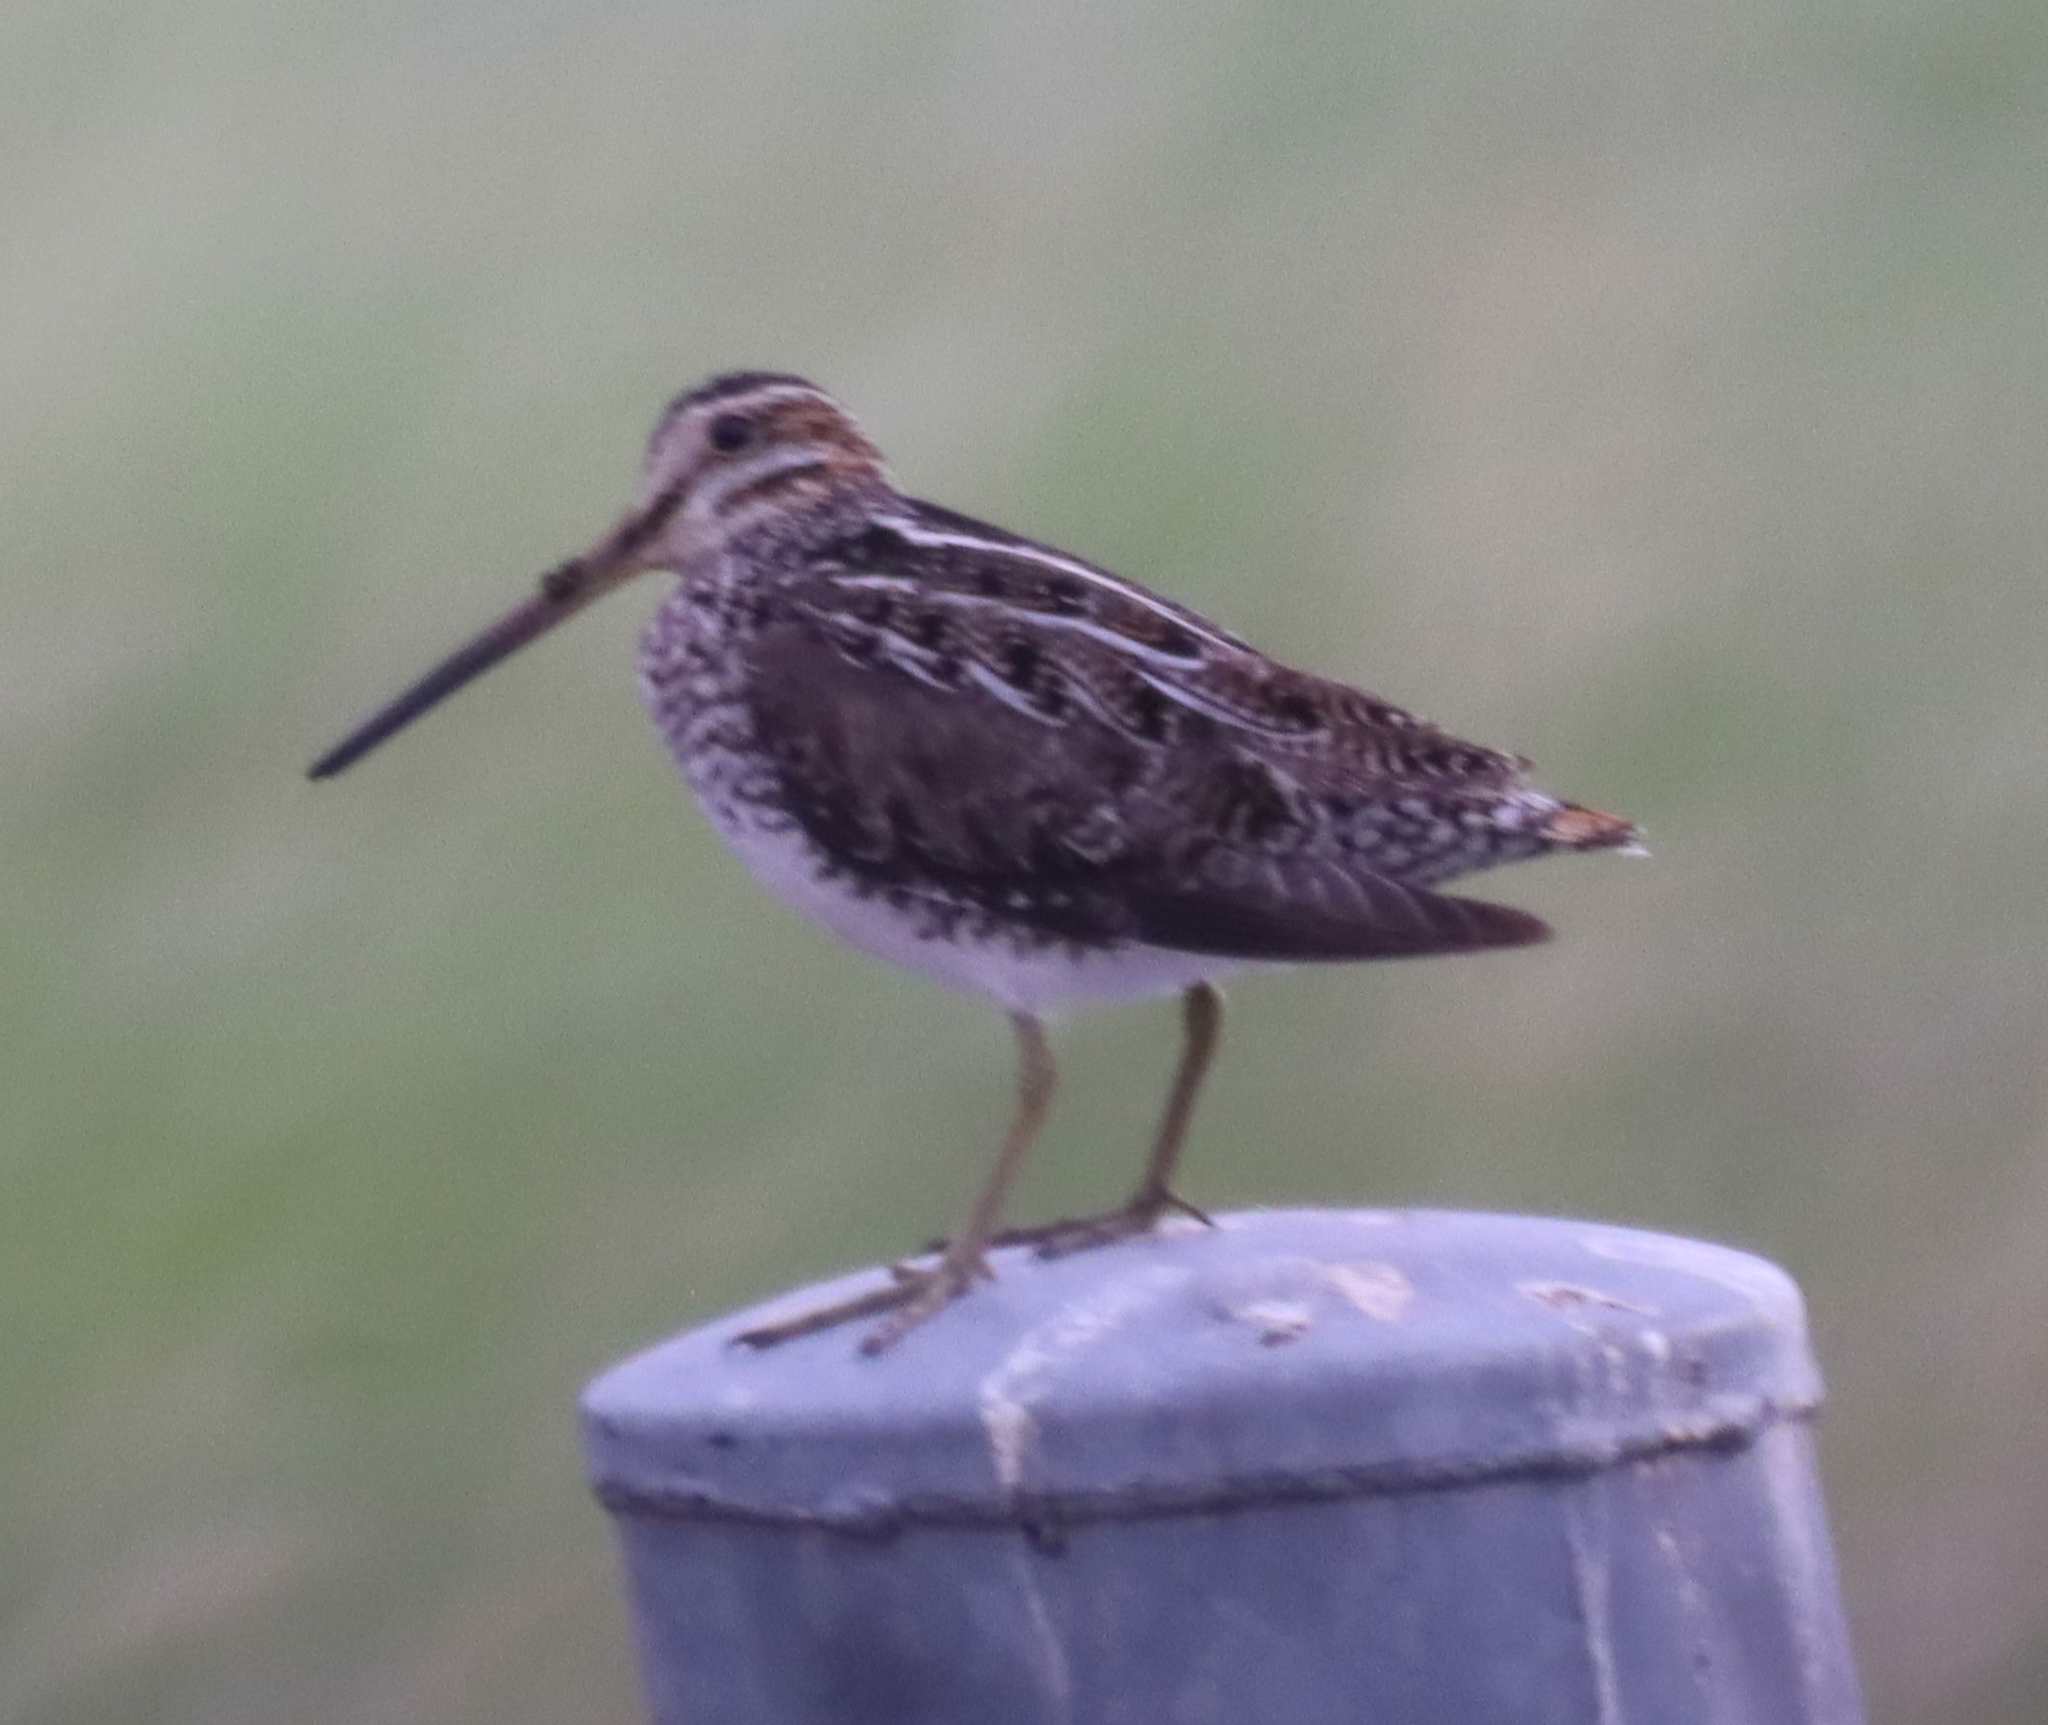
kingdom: Animalia
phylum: Chordata
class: Aves
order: Charadriiformes
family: Scolopacidae
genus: Gallinago
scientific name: Gallinago delicata
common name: Wilson's snipe
